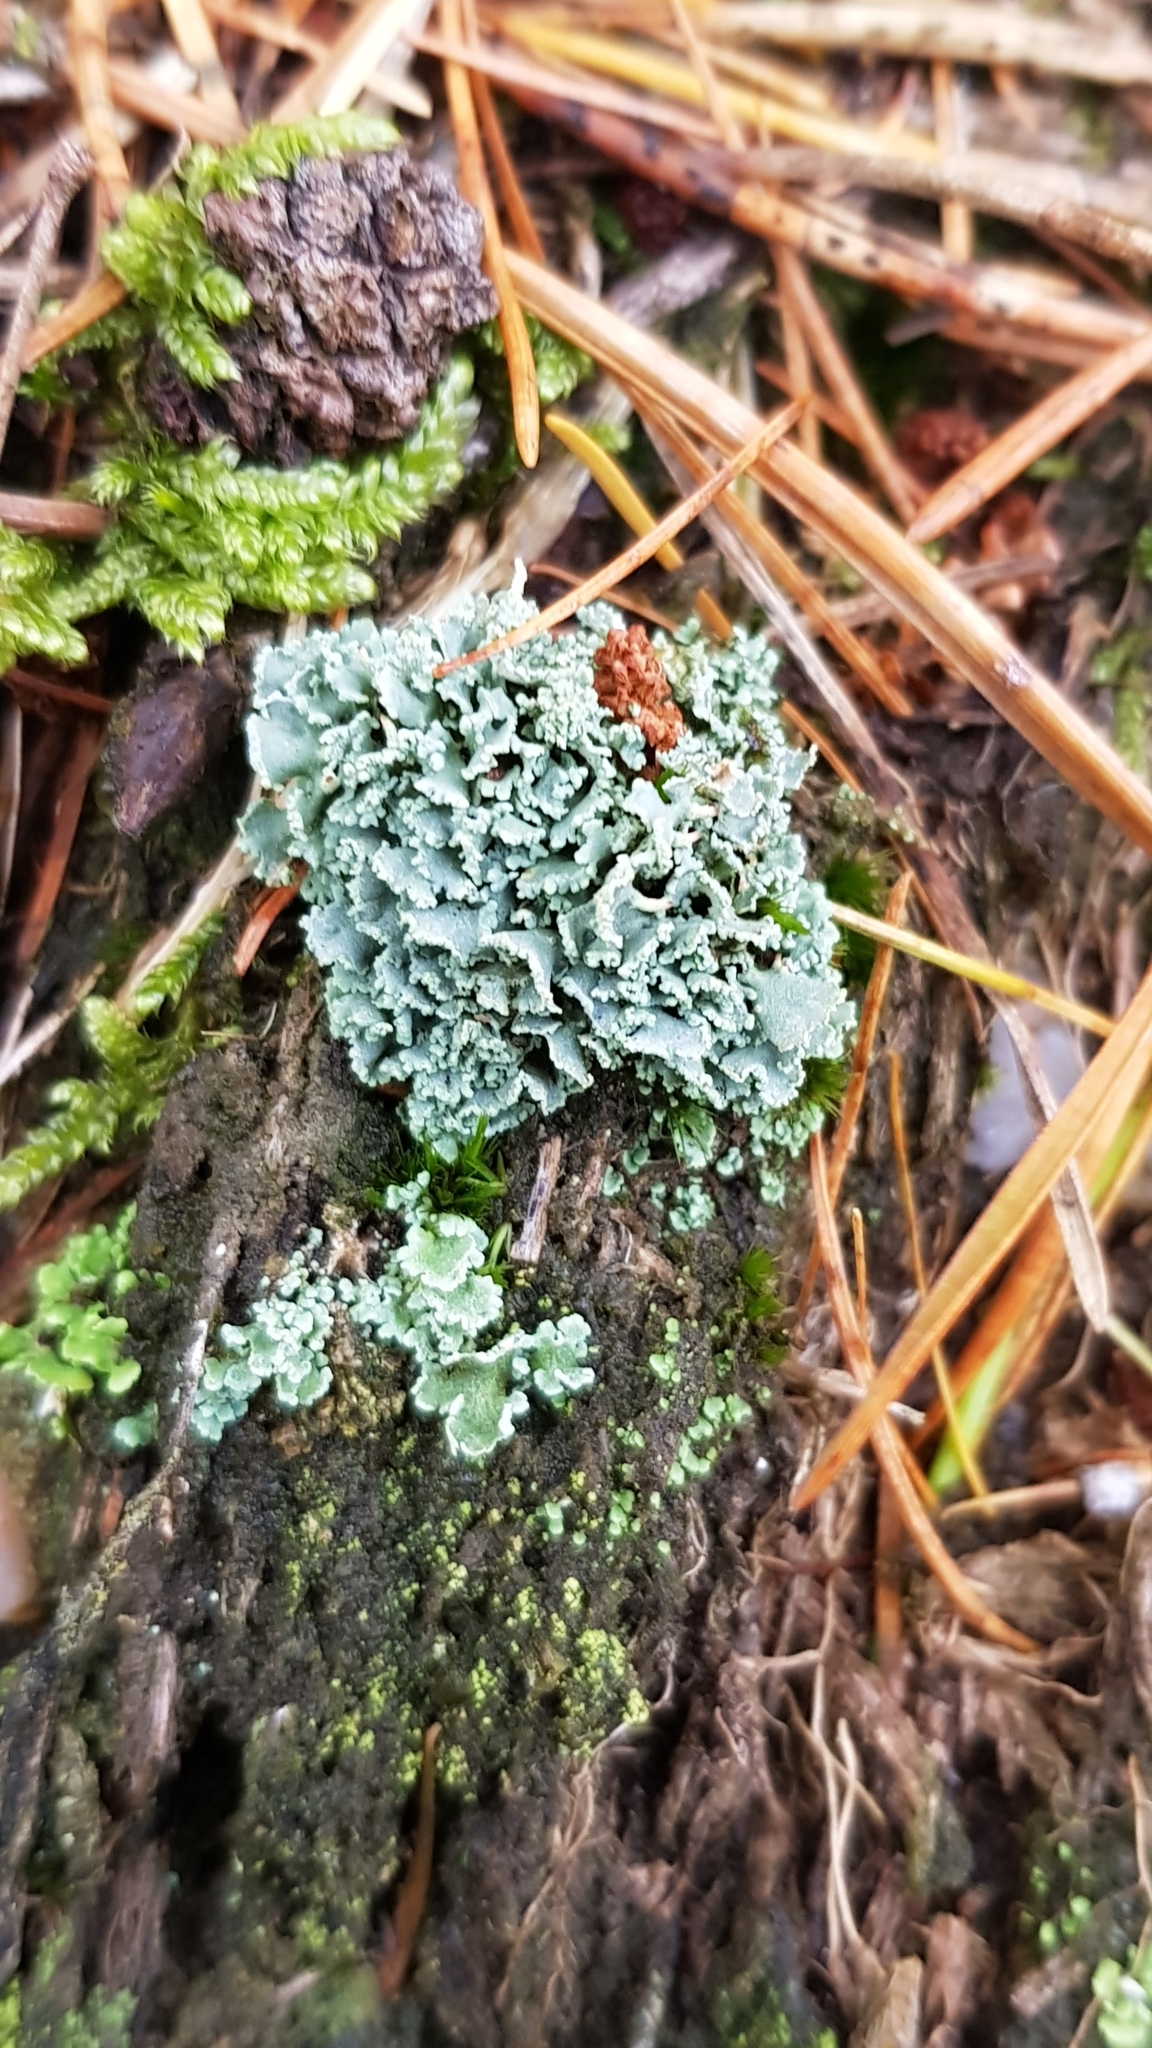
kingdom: Fungi
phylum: Ascomycota
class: Lecanoromycetes
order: Lecanorales
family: Cladoniaceae
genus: Cladonia
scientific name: Cladonia
